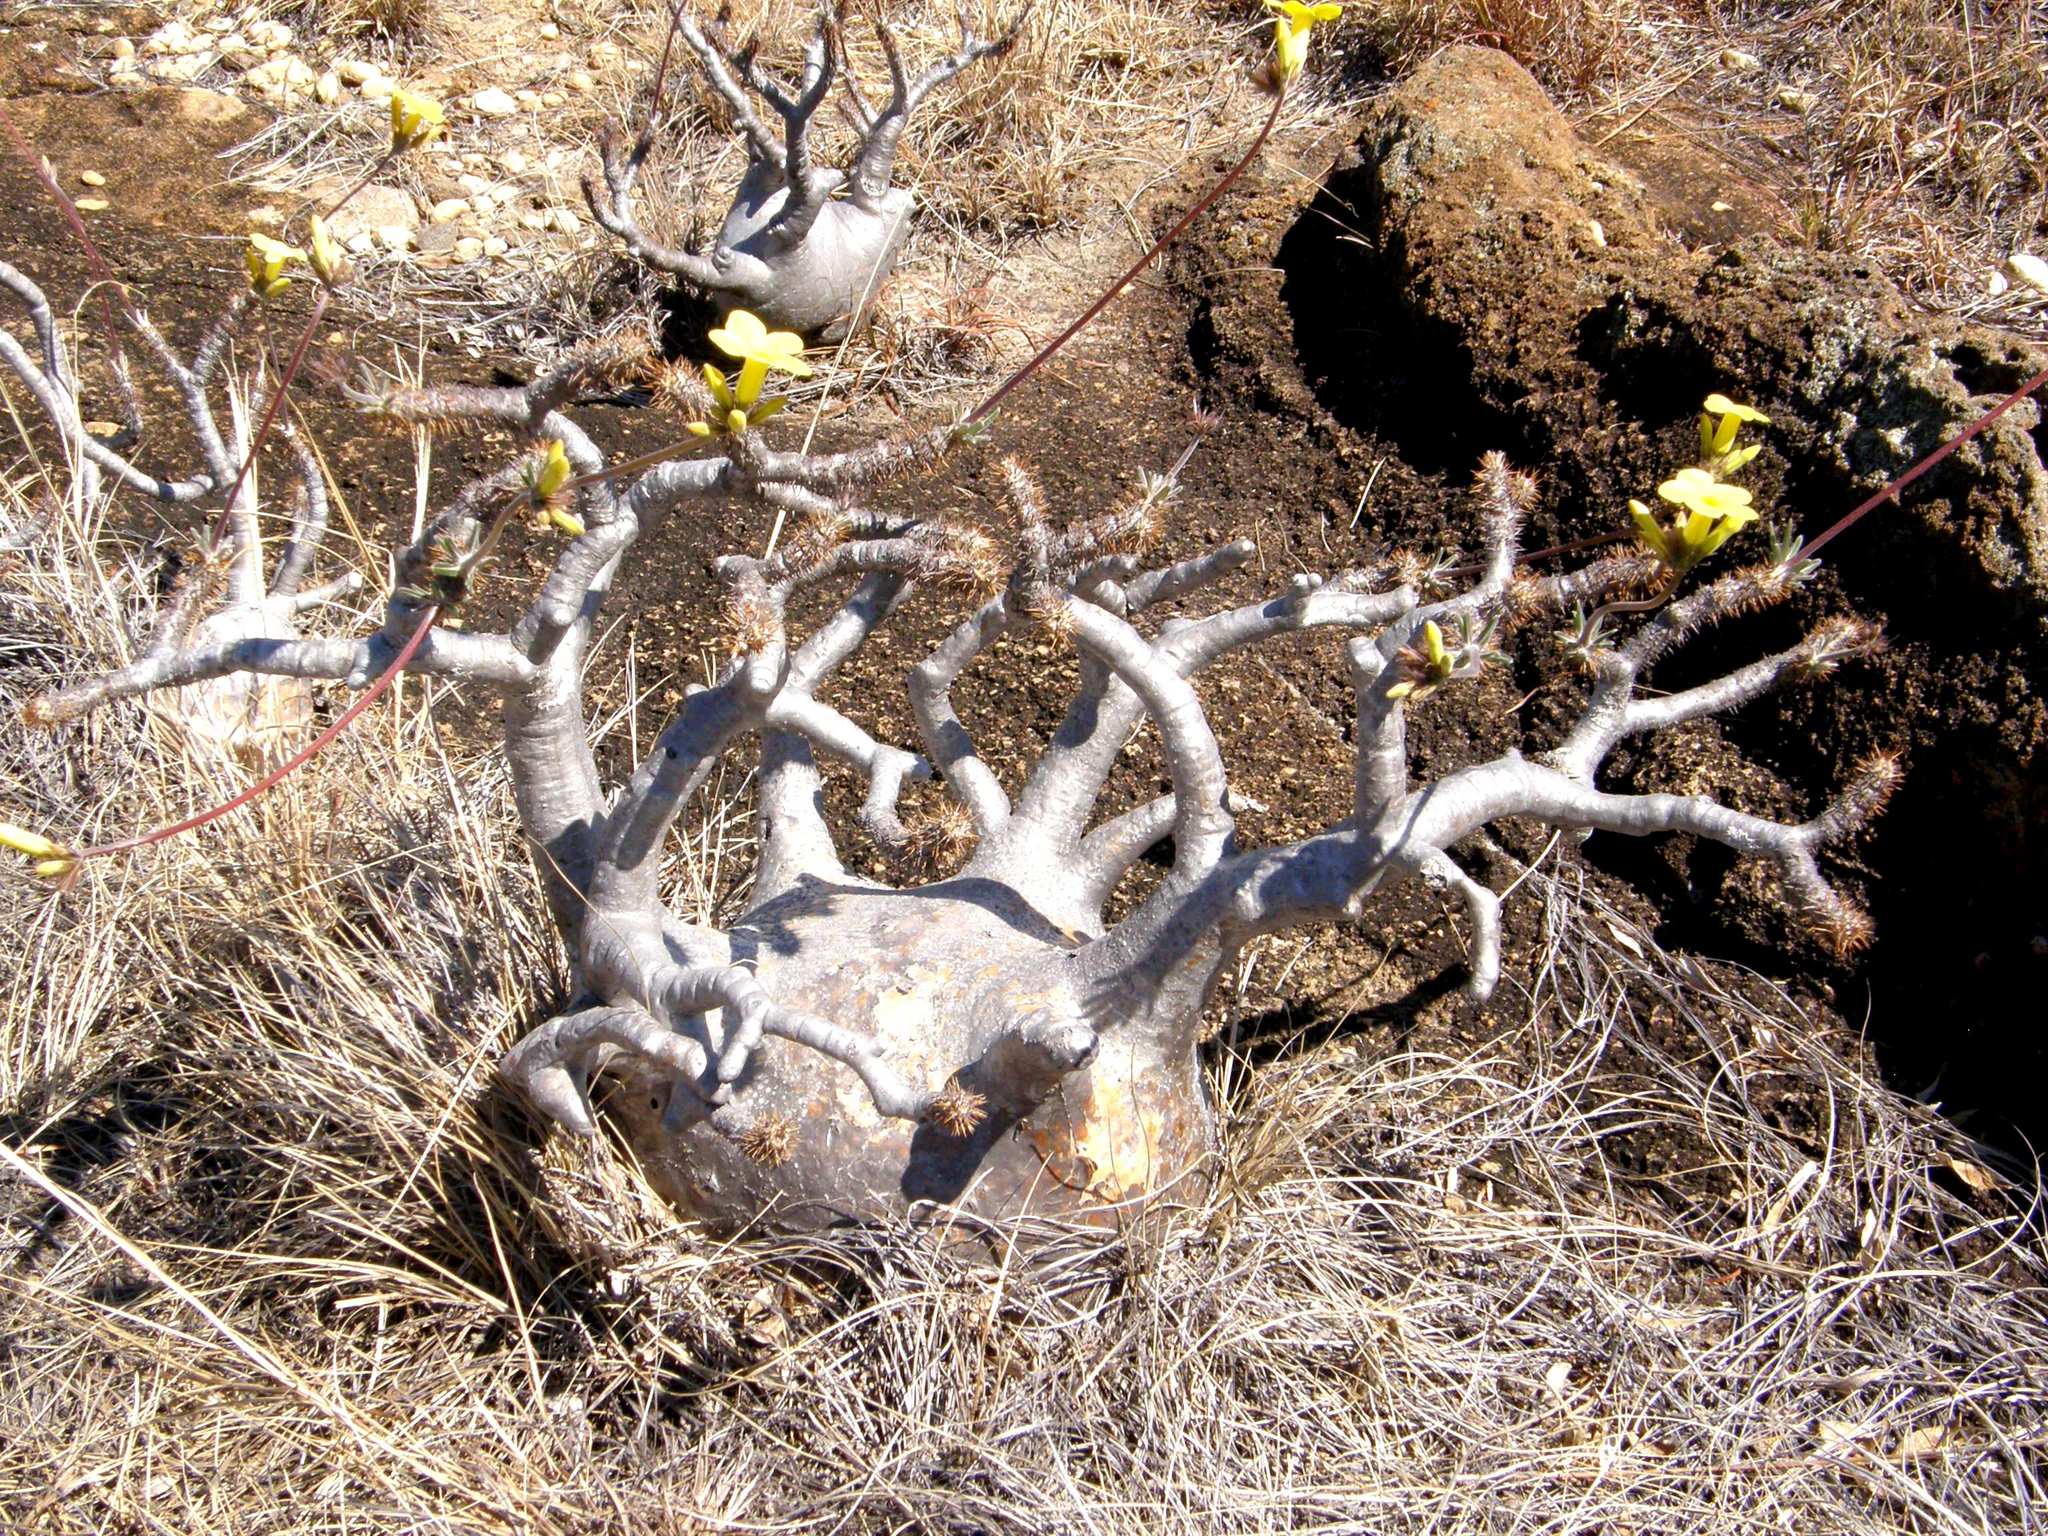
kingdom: Plantae
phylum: Tracheophyta
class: Magnoliopsida
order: Gentianales
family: Apocynaceae
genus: Pachypodium
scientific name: Pachypodium rosulatum
